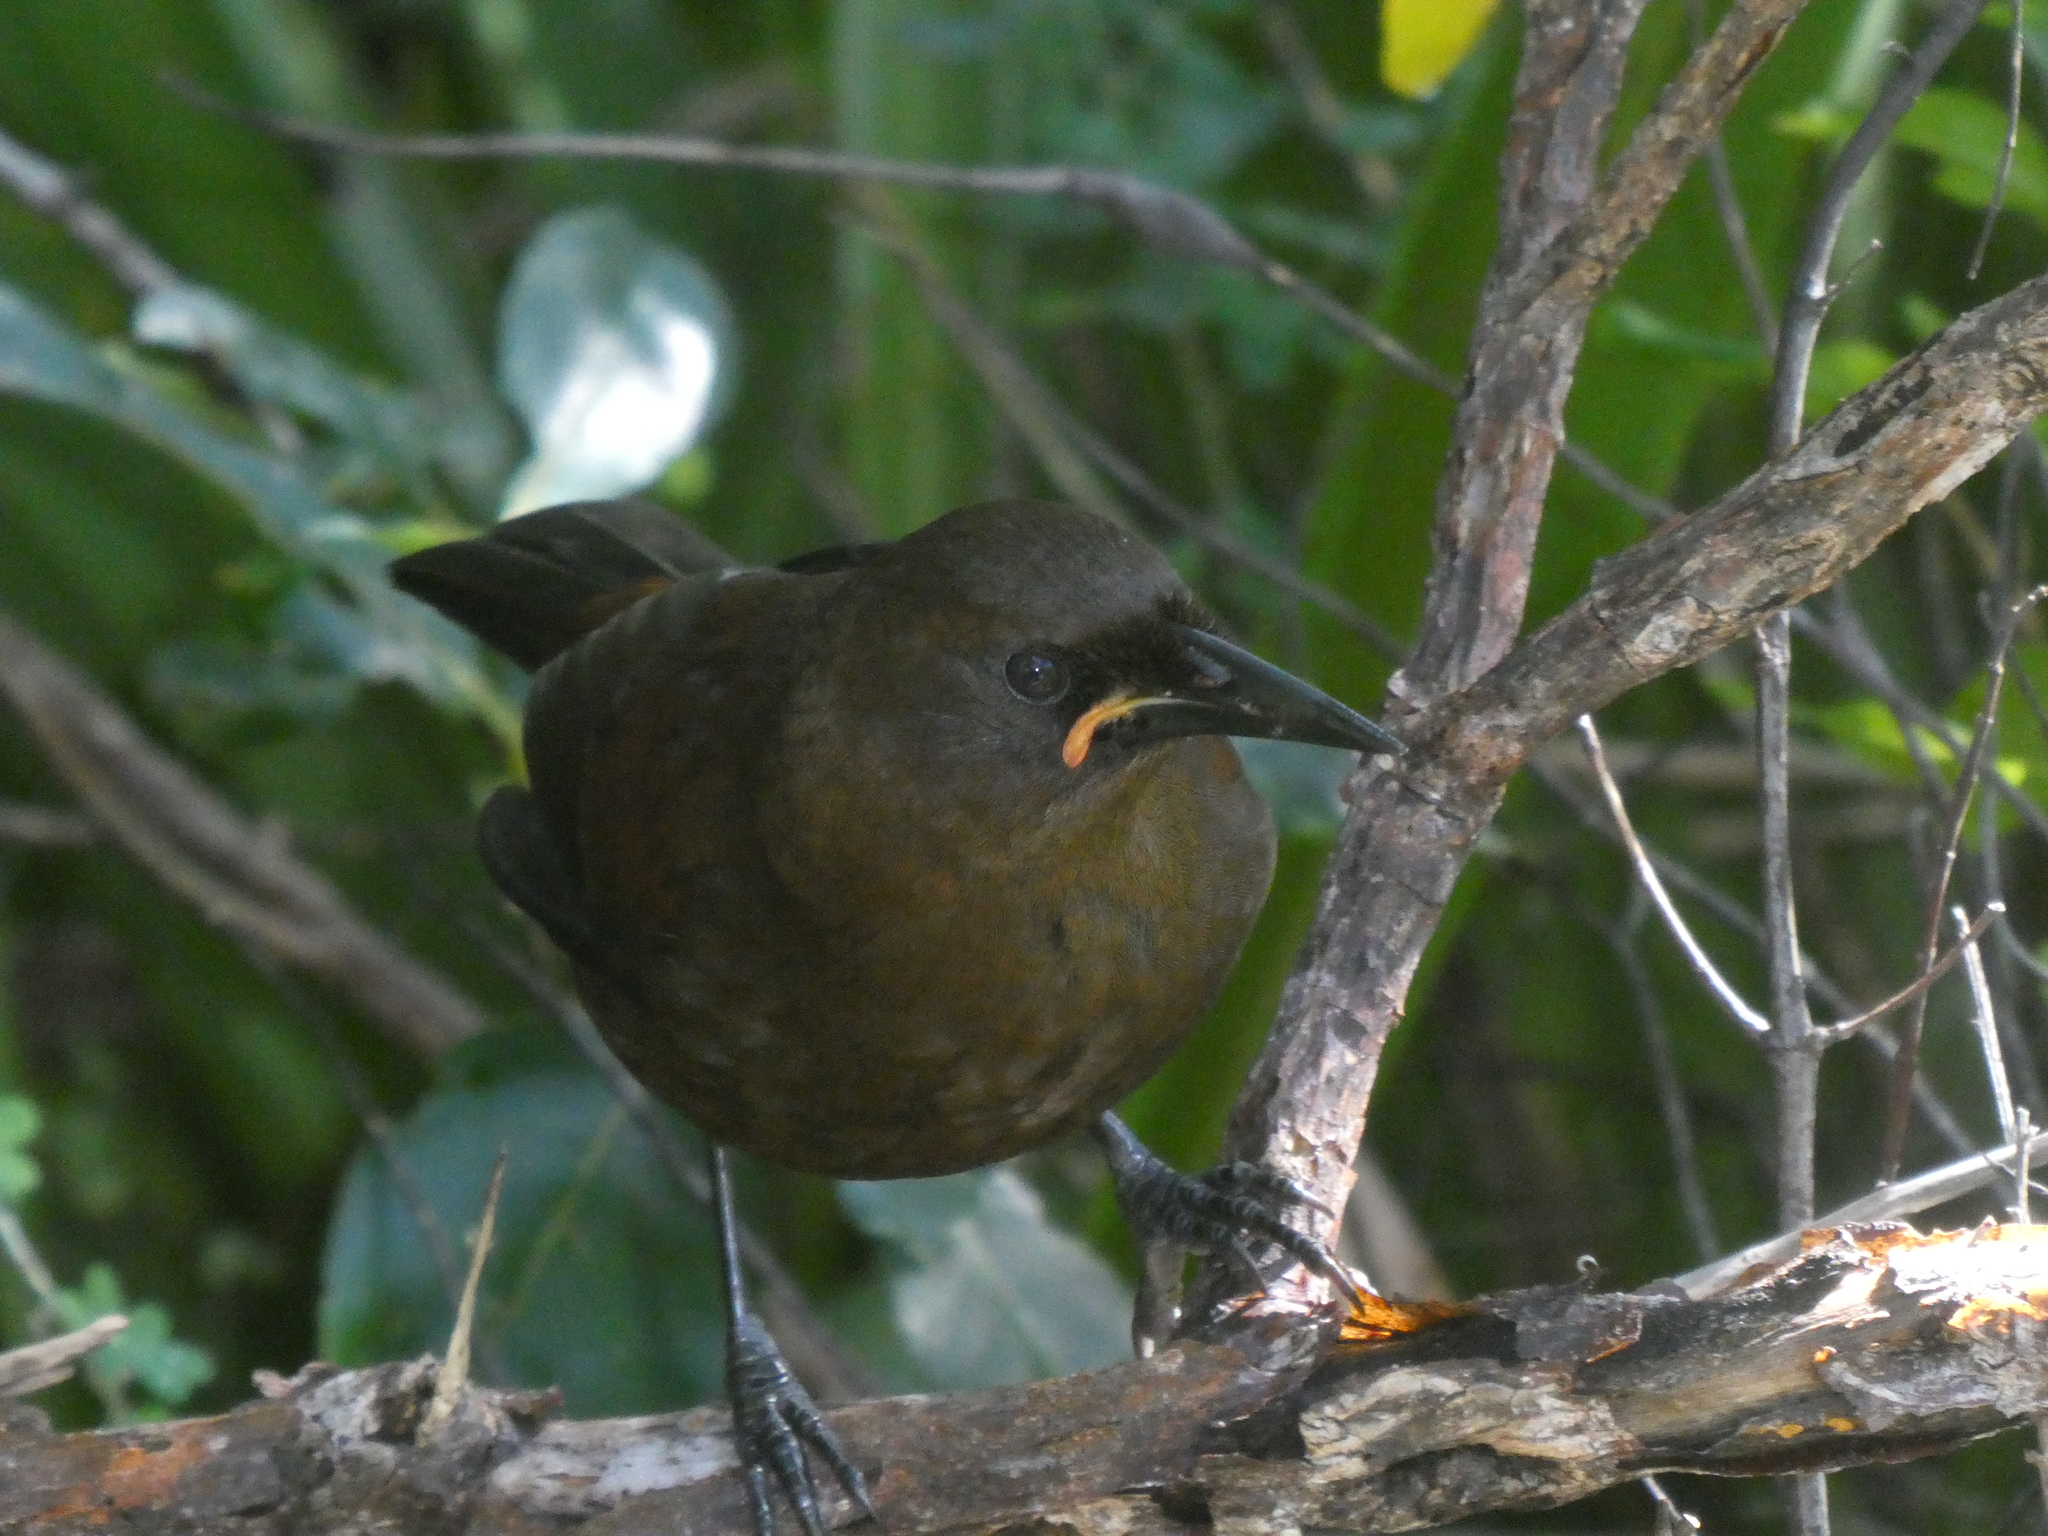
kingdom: Animalia
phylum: Chordata
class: Aves
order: Passeriformes
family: Callaeatidae
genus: Philesturnus
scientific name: Philesturnus carunculatus
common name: South island saddleback
